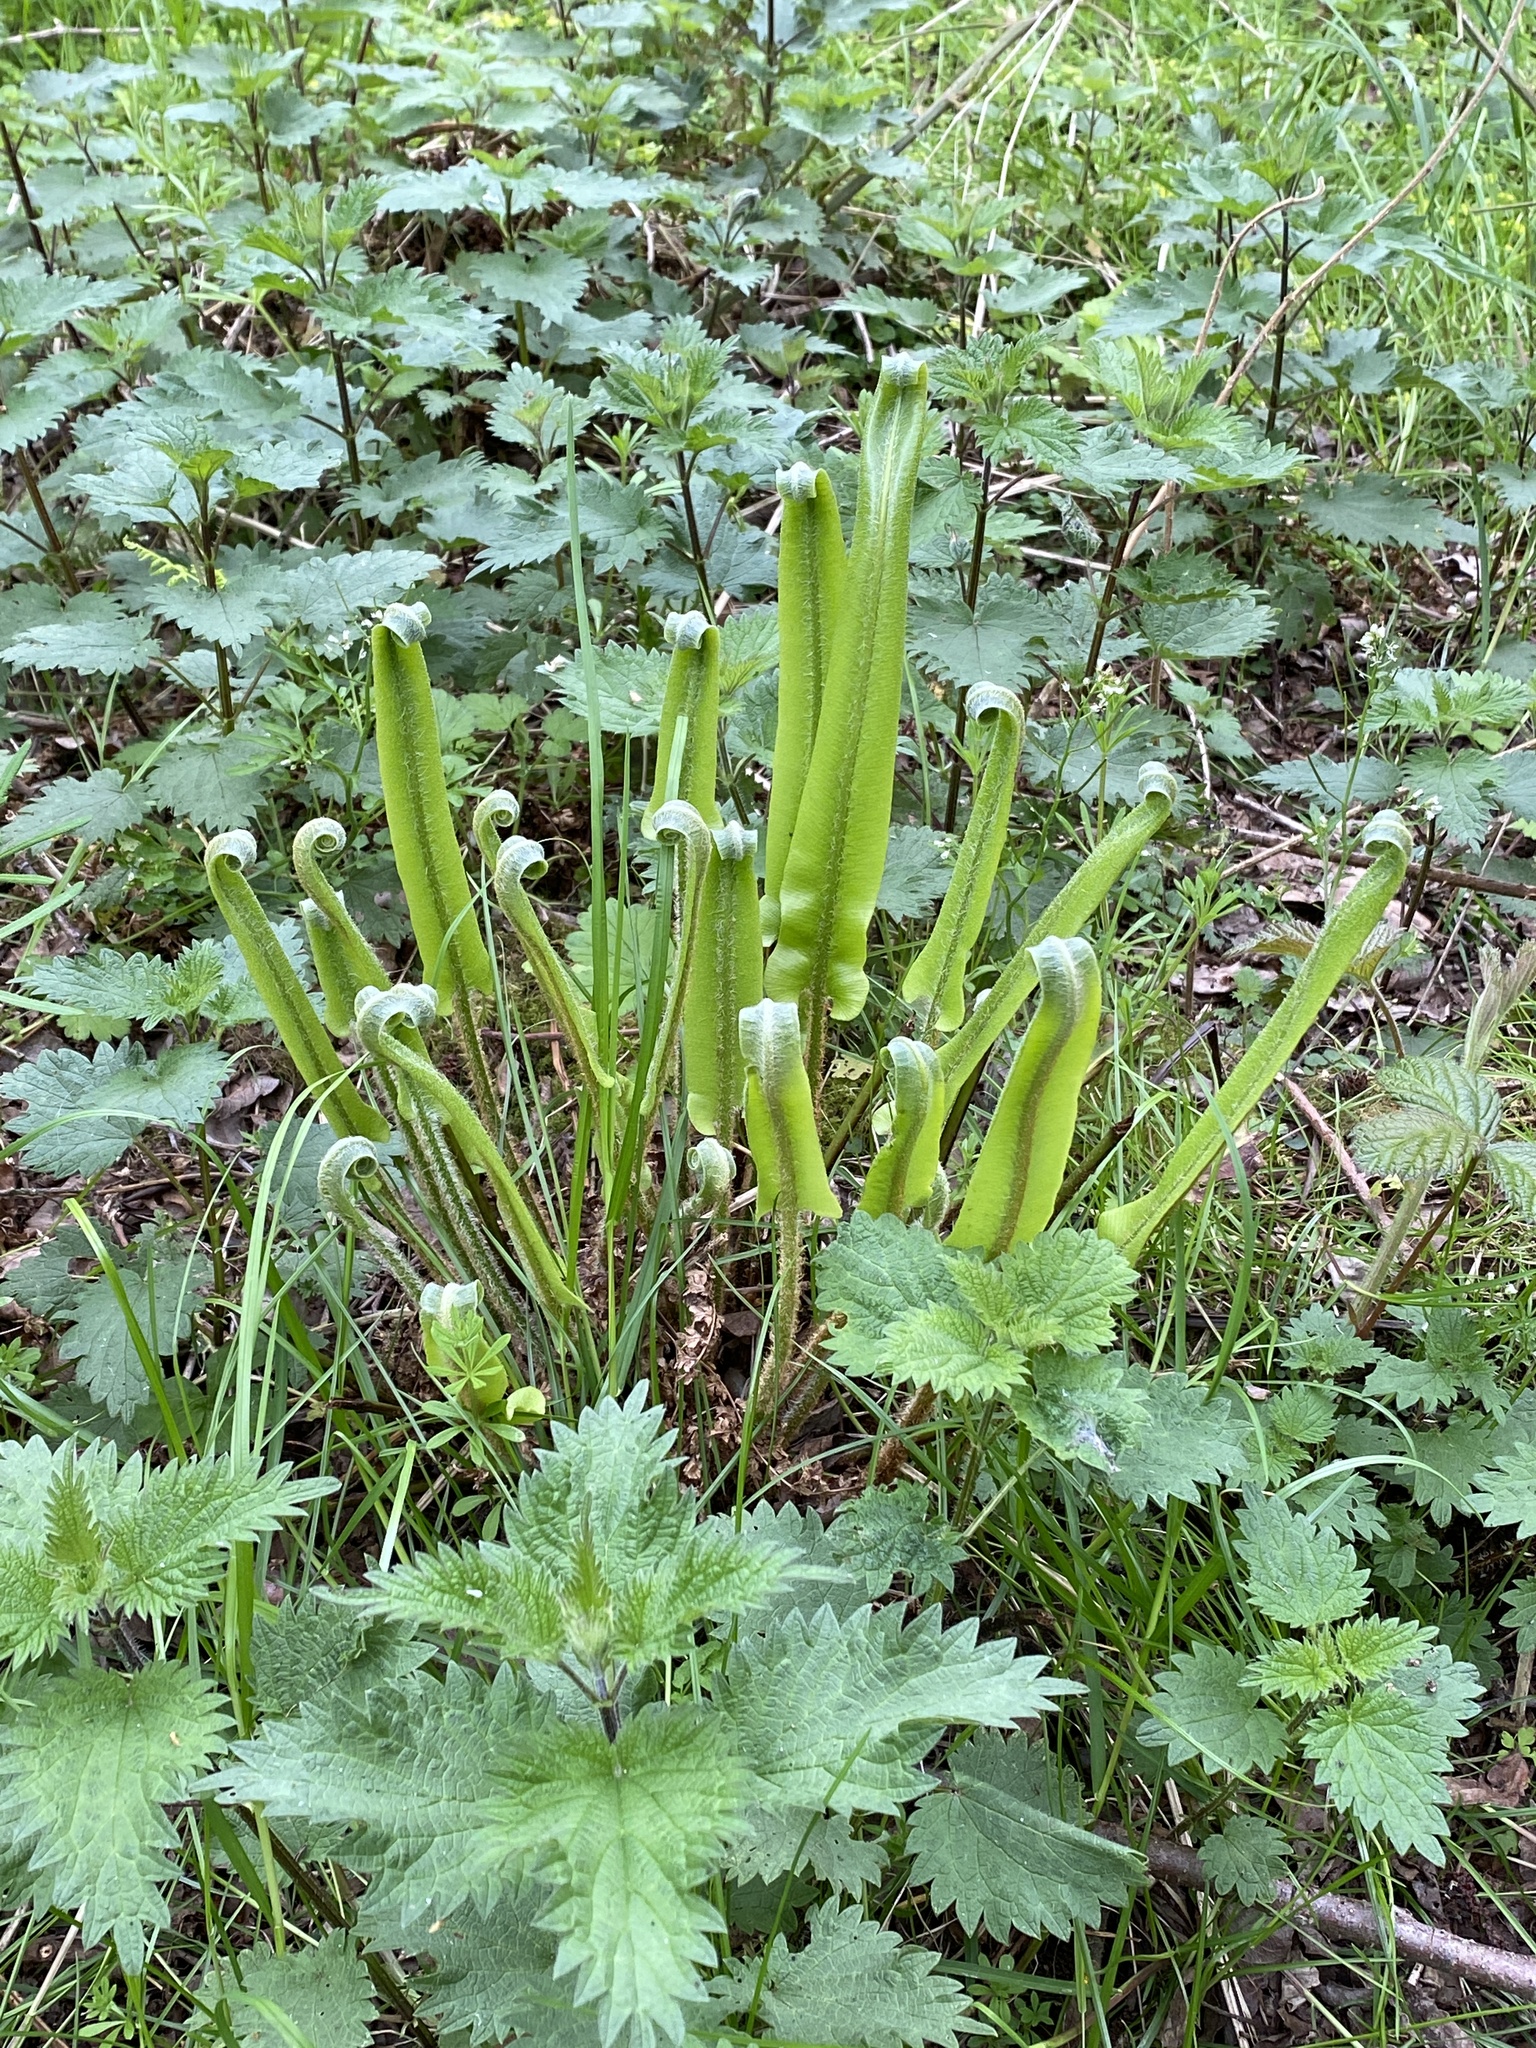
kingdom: Plantae
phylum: Tracheophyta
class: Polypodiopsida
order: Polypodiales
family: Aspleniaceae
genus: Asplenium
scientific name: Asplenium scolopendrium
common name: Hart's-tongue fern
